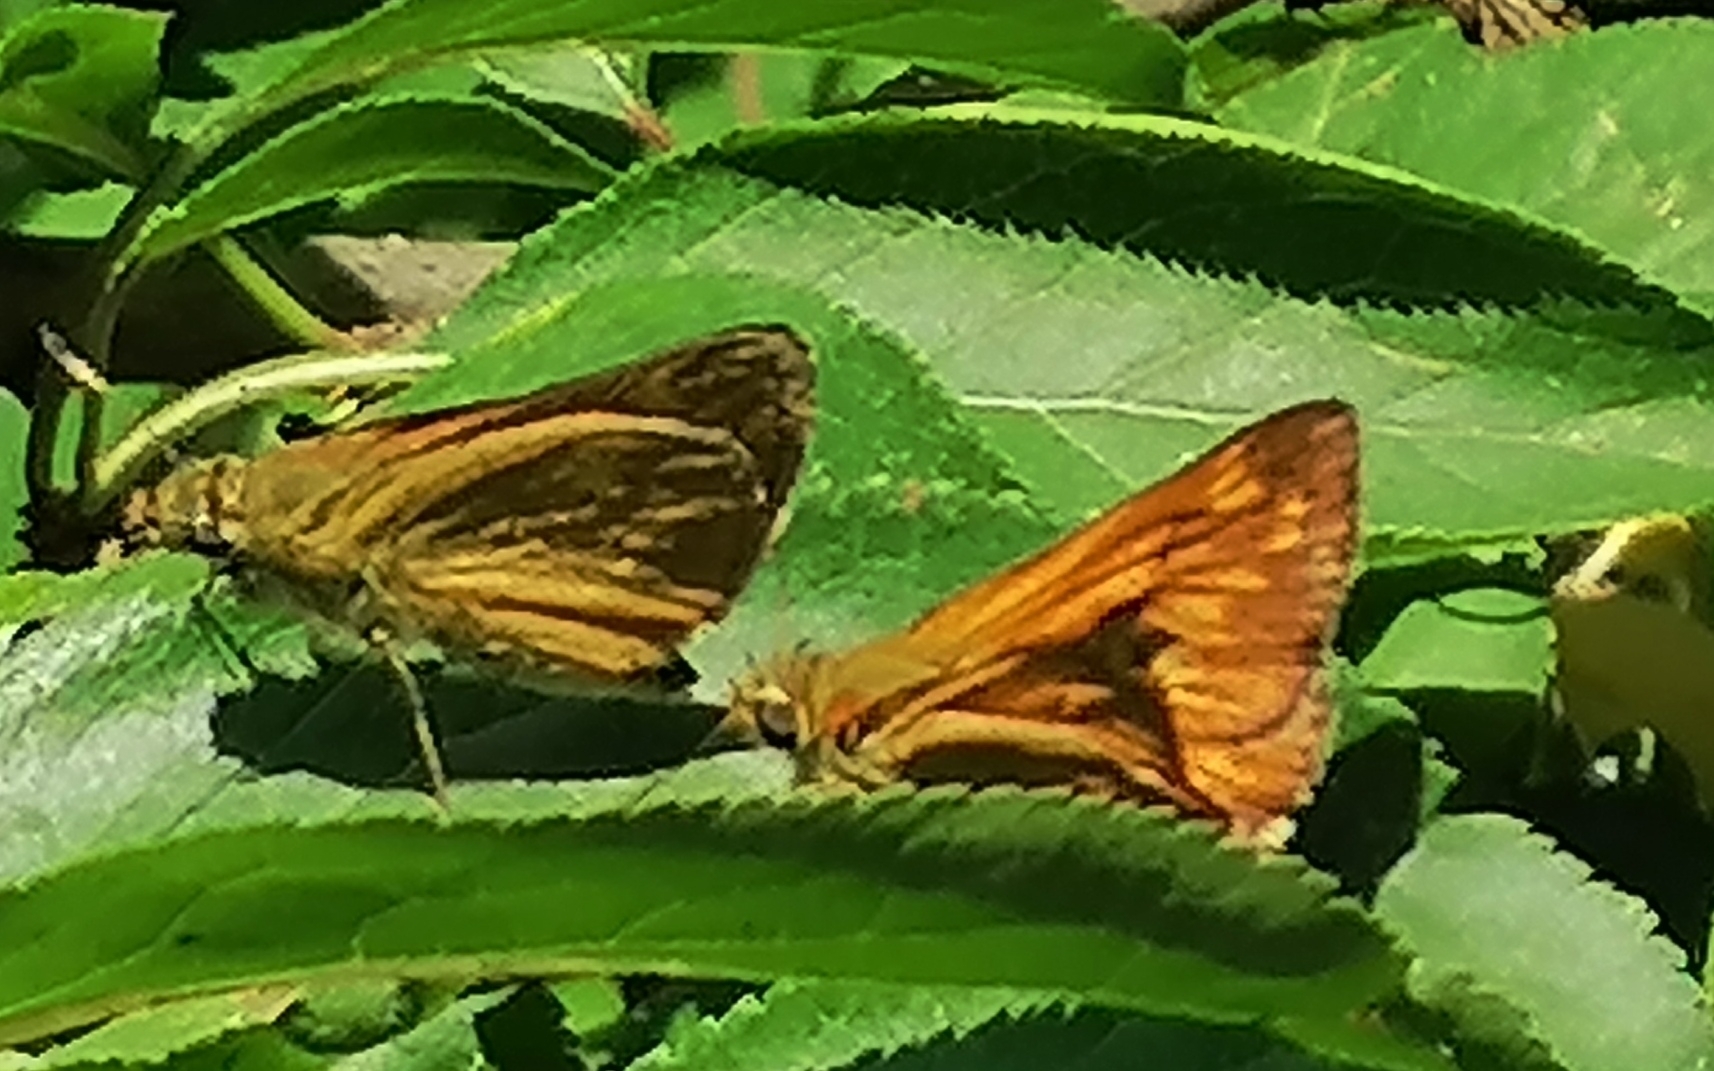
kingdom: Animalia
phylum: Arthropoda
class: Insecta
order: Lepidoptera
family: Hesperiidae
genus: Ochlodes
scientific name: Ochlodes venata
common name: Large skipper
